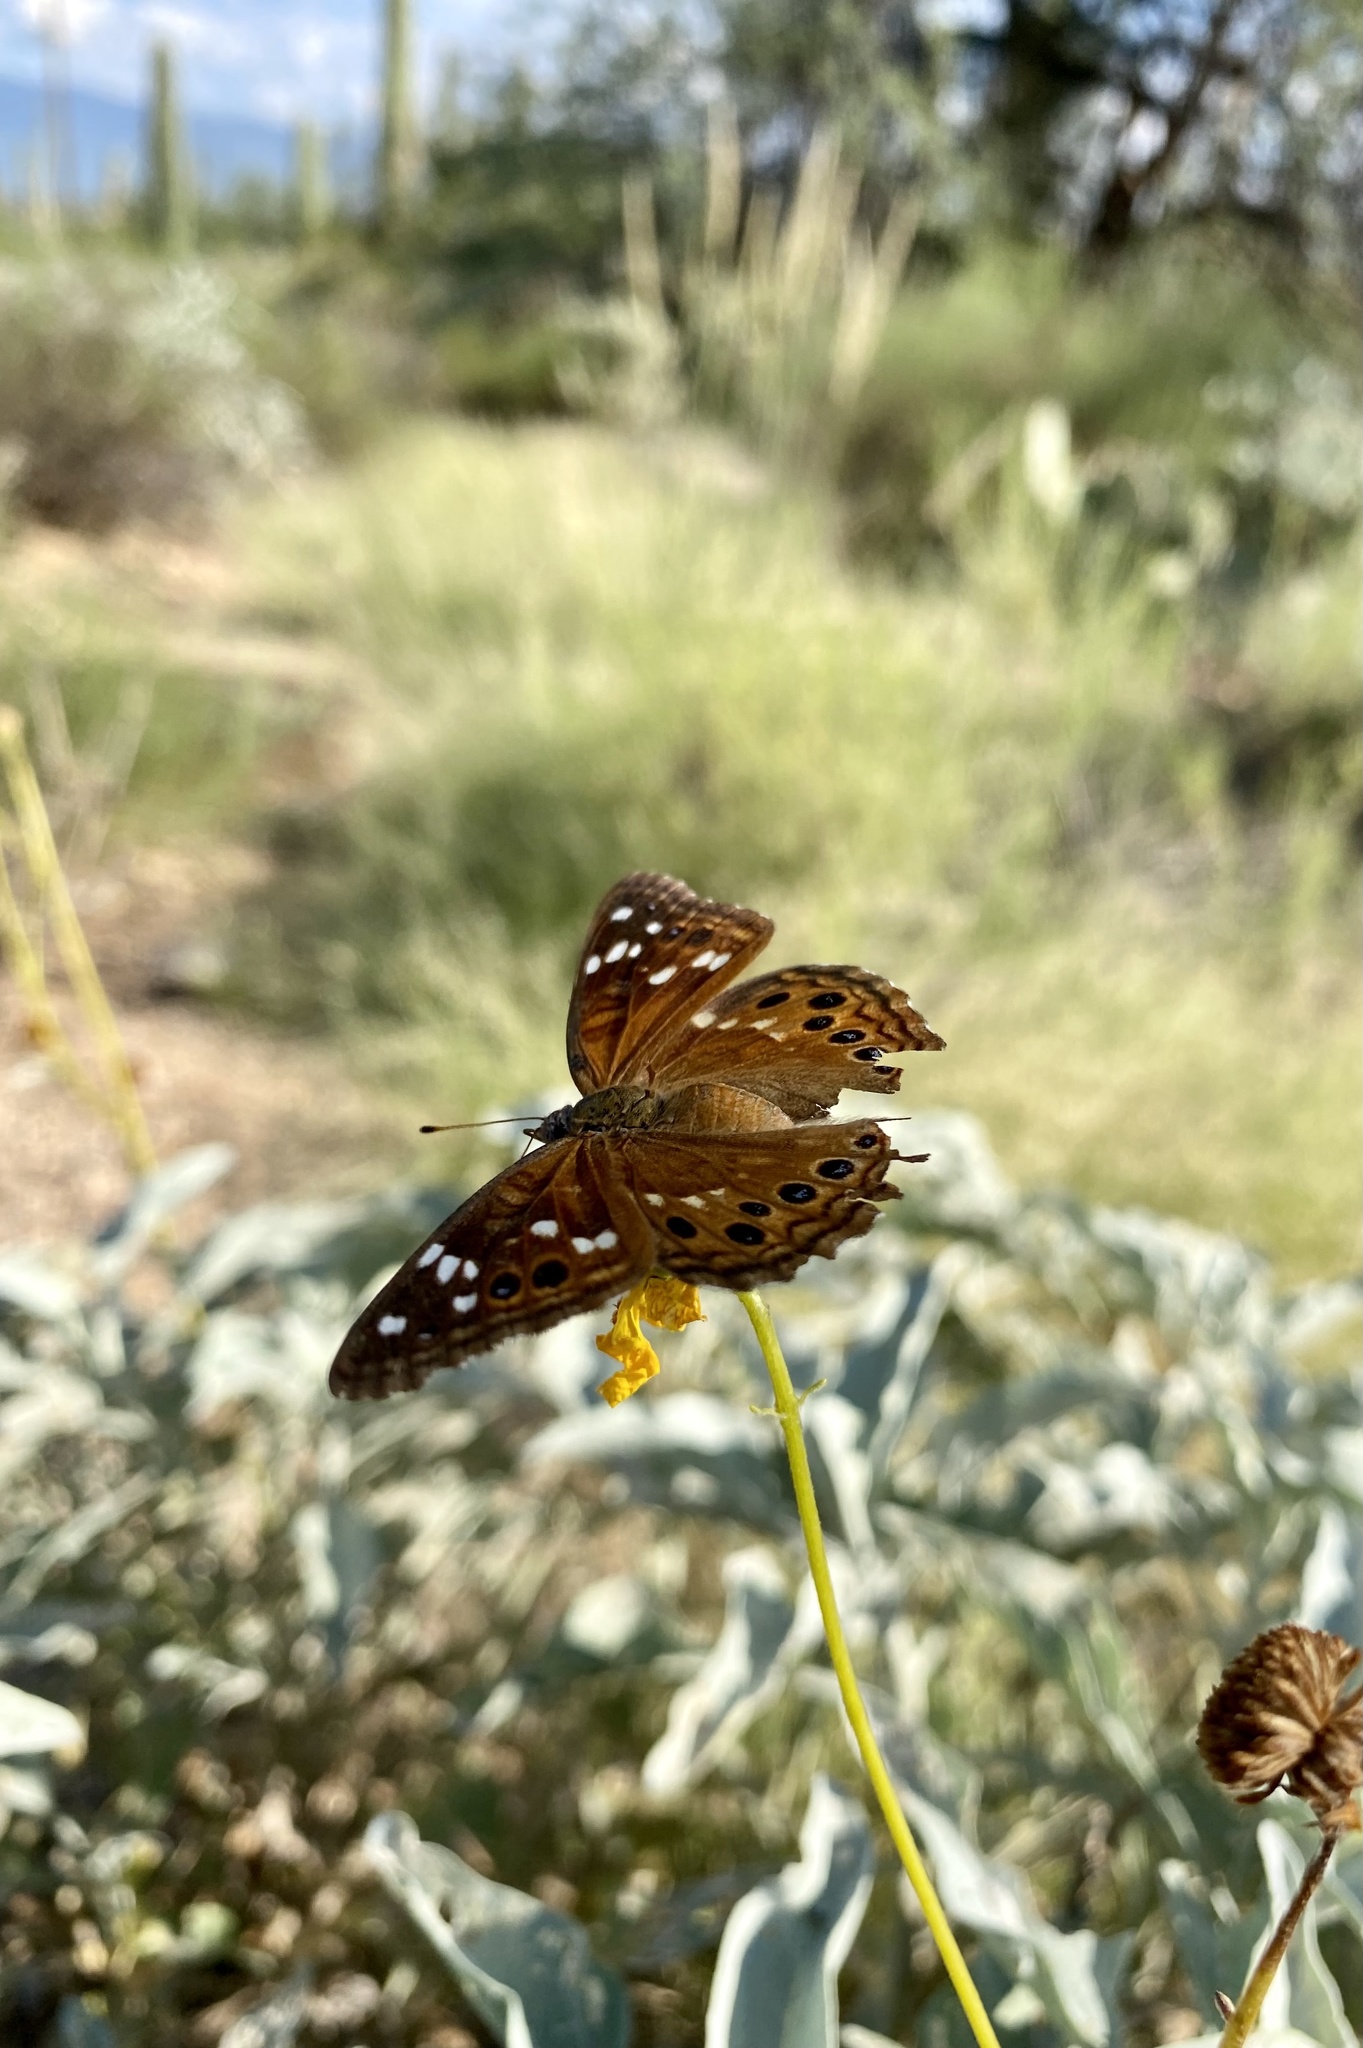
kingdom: Animalia
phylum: Arthropoda
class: Insecta
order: Lepidoptera
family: Nymphalidae
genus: Asterocampa
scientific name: Asterocampa leilia
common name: Empress leilia
